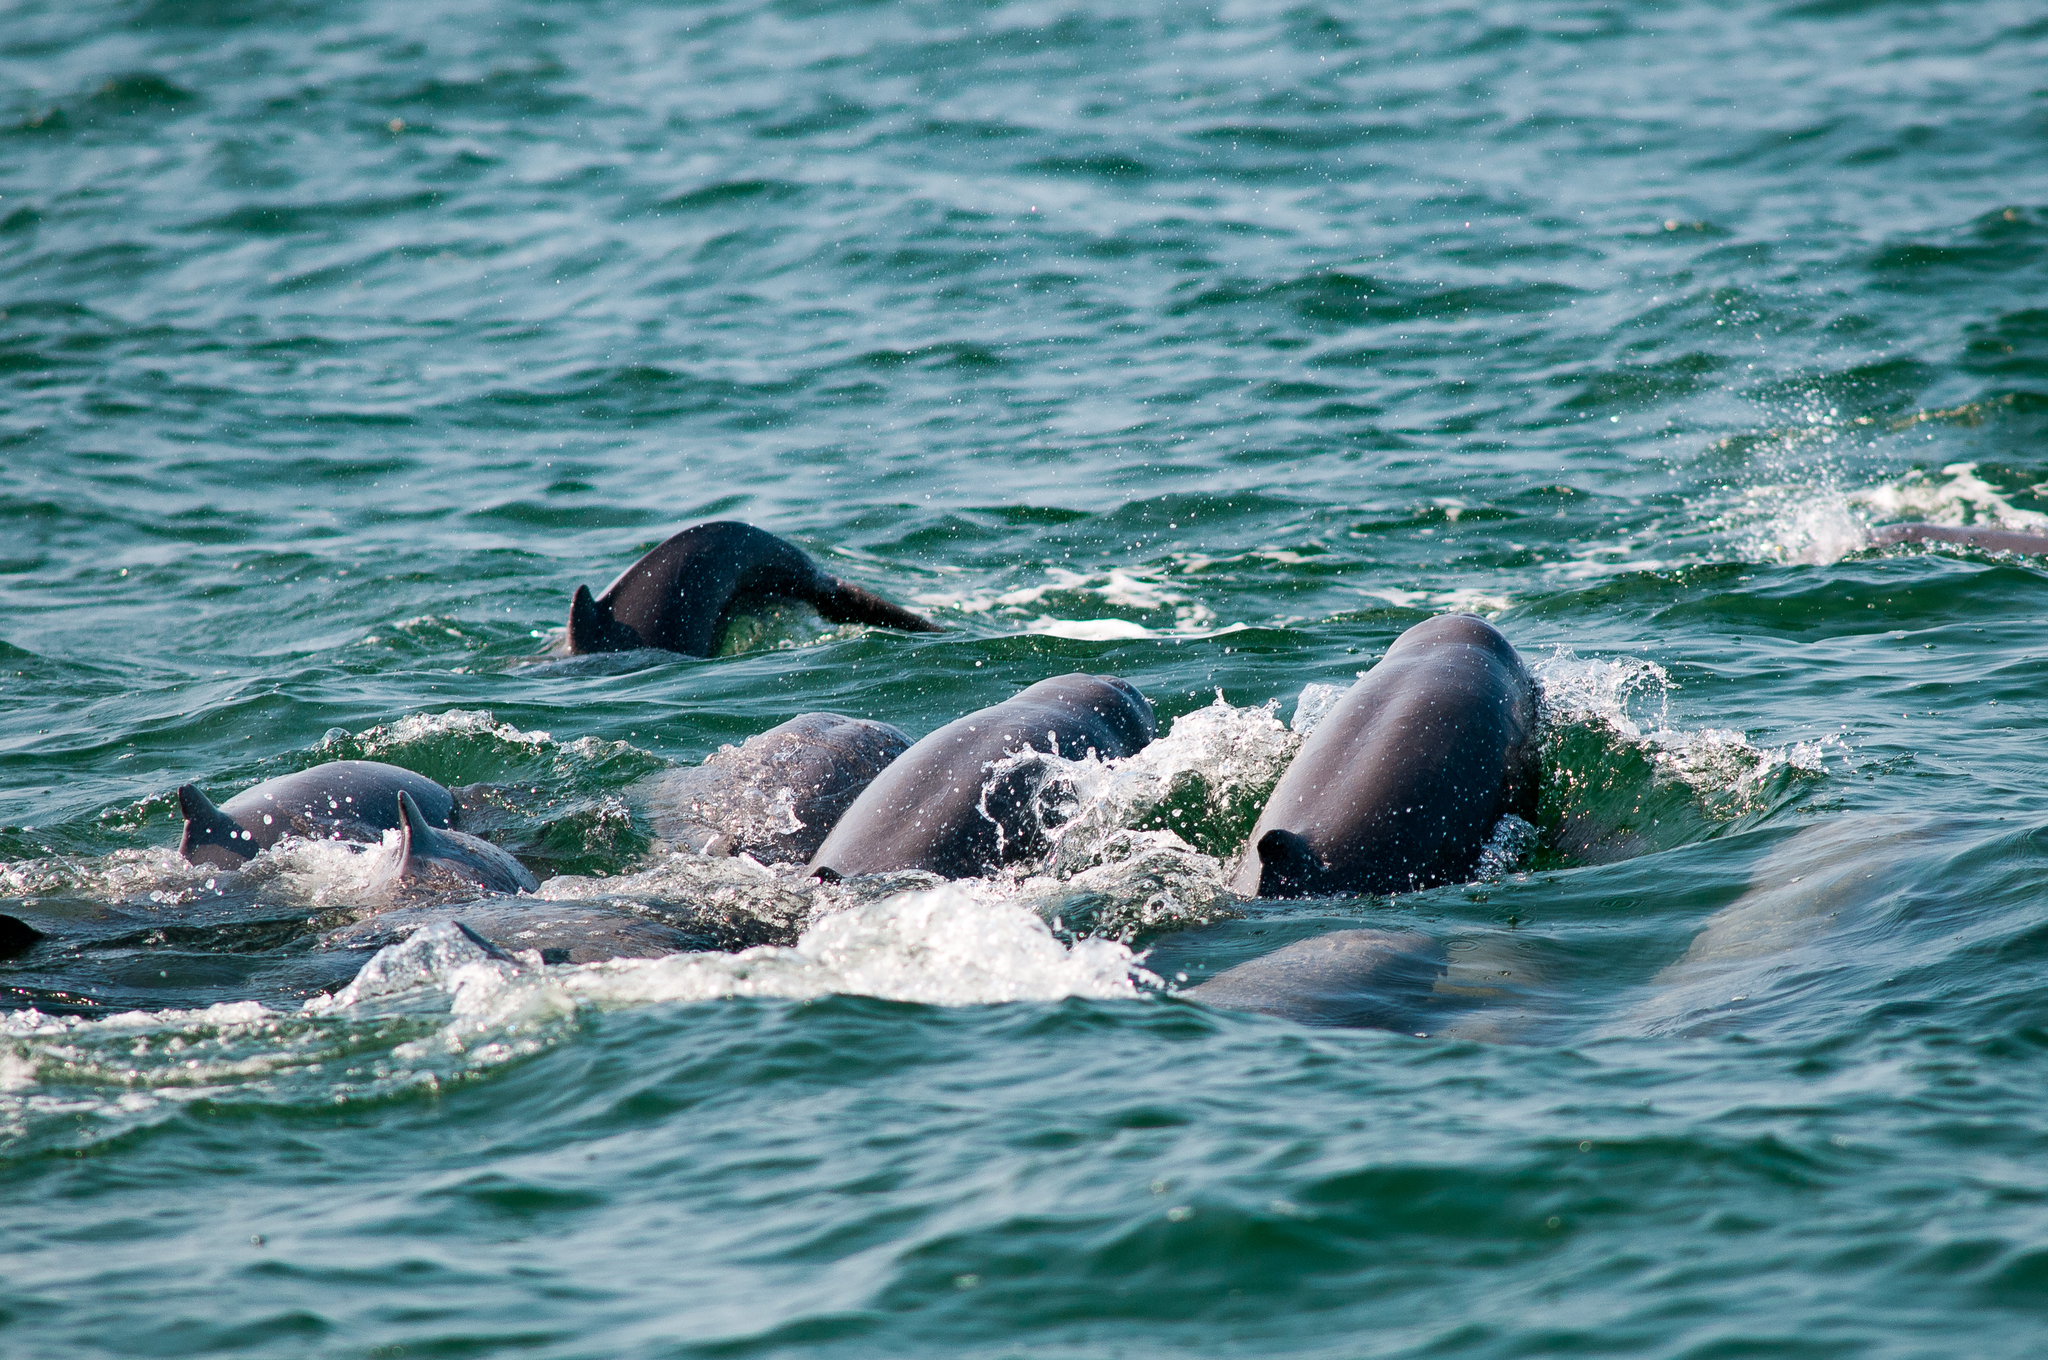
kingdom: Animalia
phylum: Chordata
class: Mammalia
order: Cetacea
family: Delphinidae
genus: Orcaella
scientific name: Orcaella brevirostris
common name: Irrawaddy dolphin
